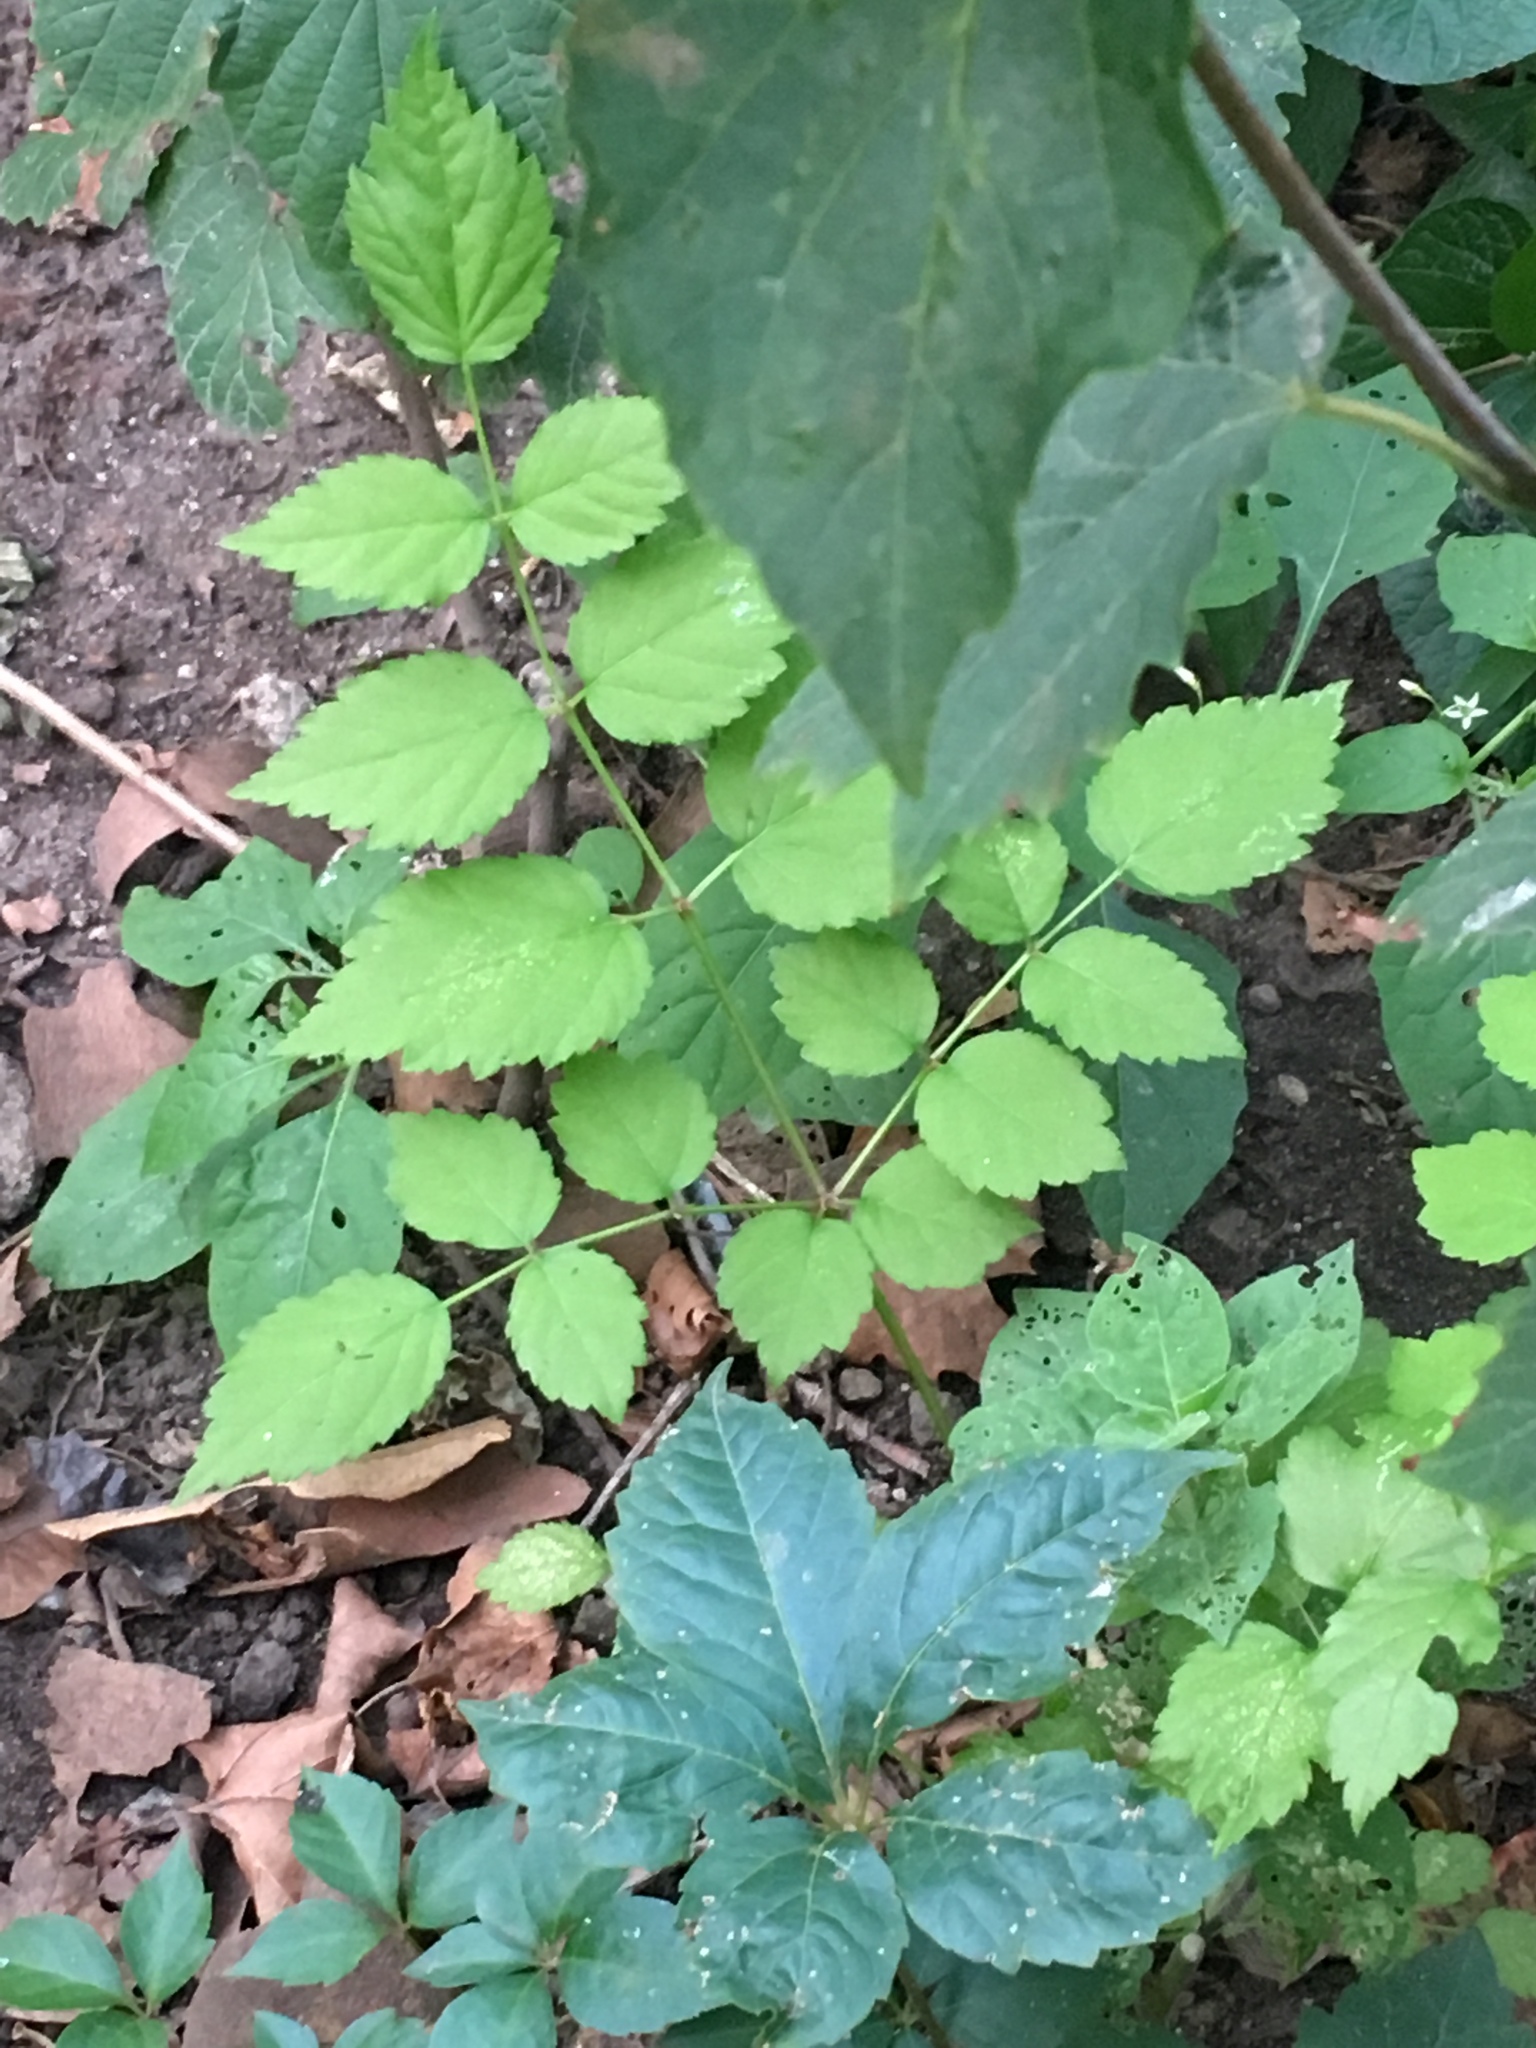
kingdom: Plantae
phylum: Tracheophyta
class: Magnoliopsida
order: Apiales
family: Araliaceae
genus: Aralia
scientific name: Aralia elata
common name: Japanese angelica-tree
